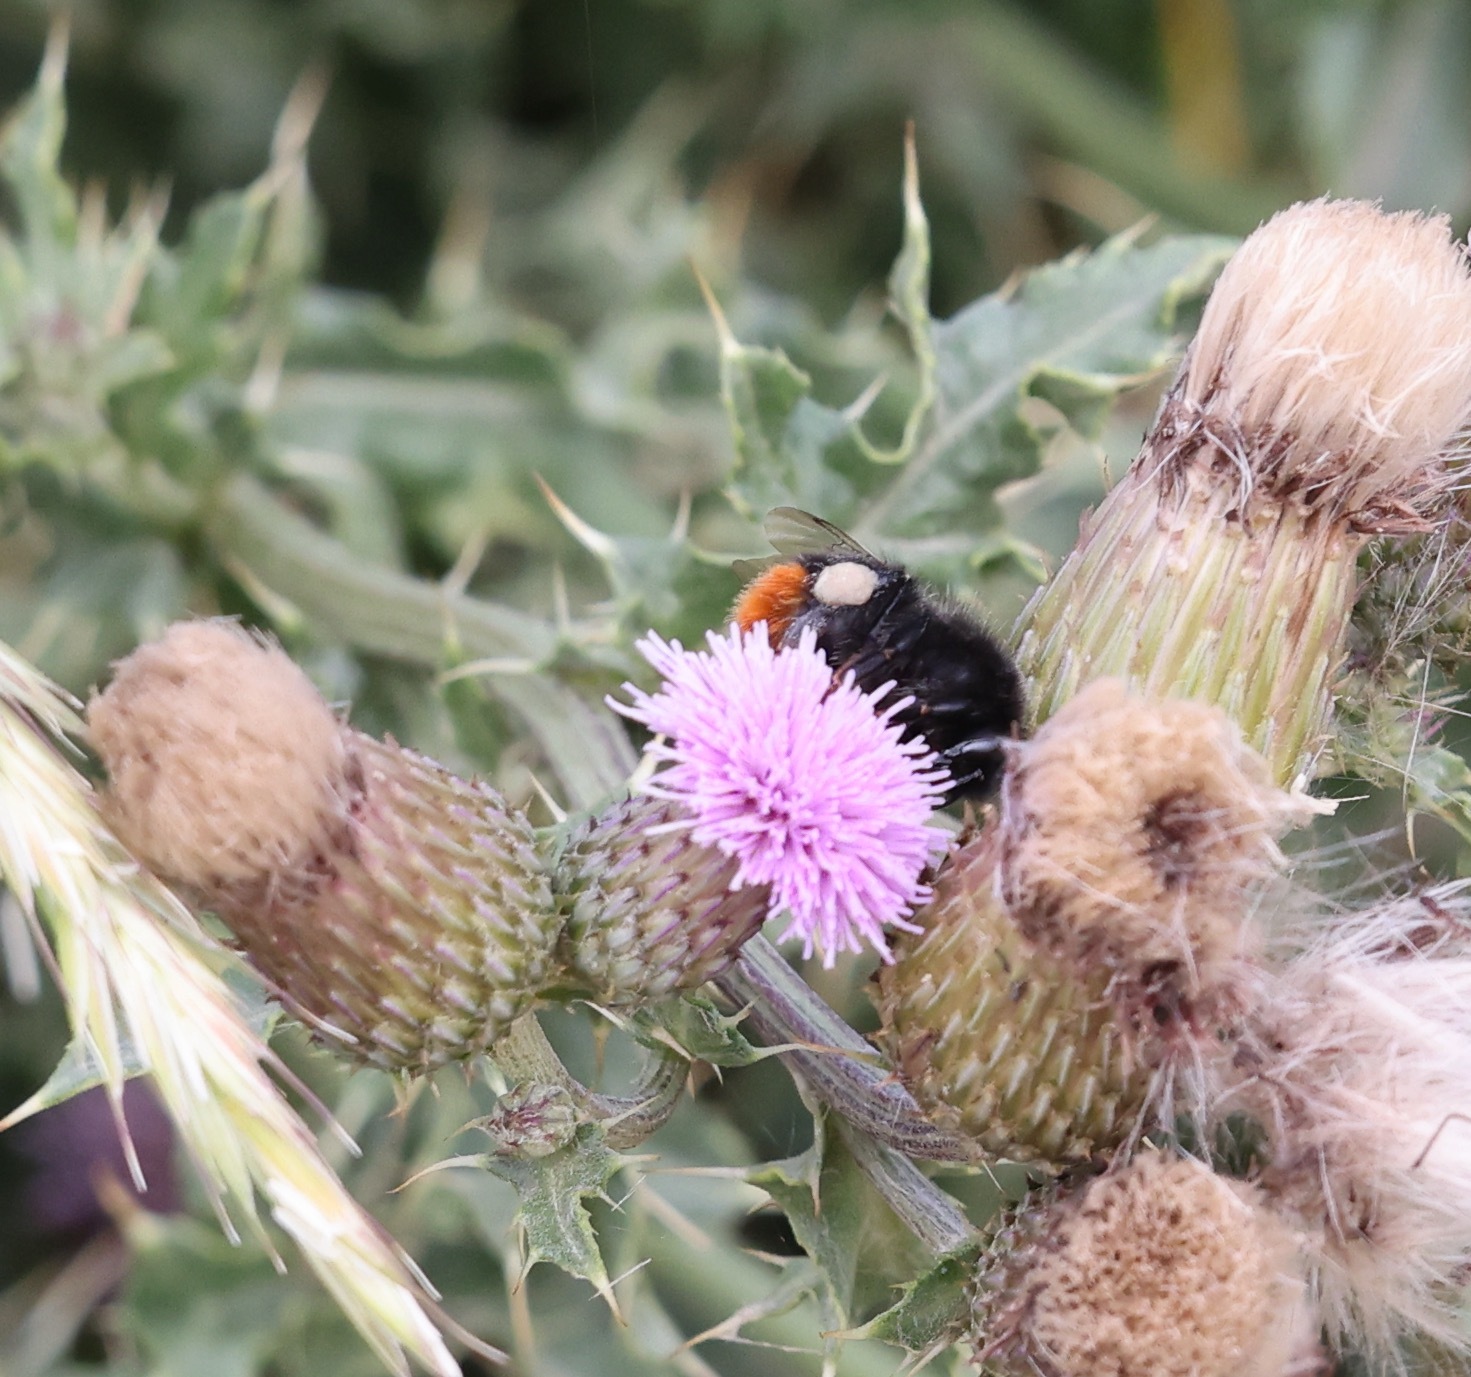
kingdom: Animalia
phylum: Arthropoda
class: Insecta
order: Hymenoptera
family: Apidae
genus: Bombus
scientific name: Bombus lapidarius
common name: Large red-tailed humble-bee
